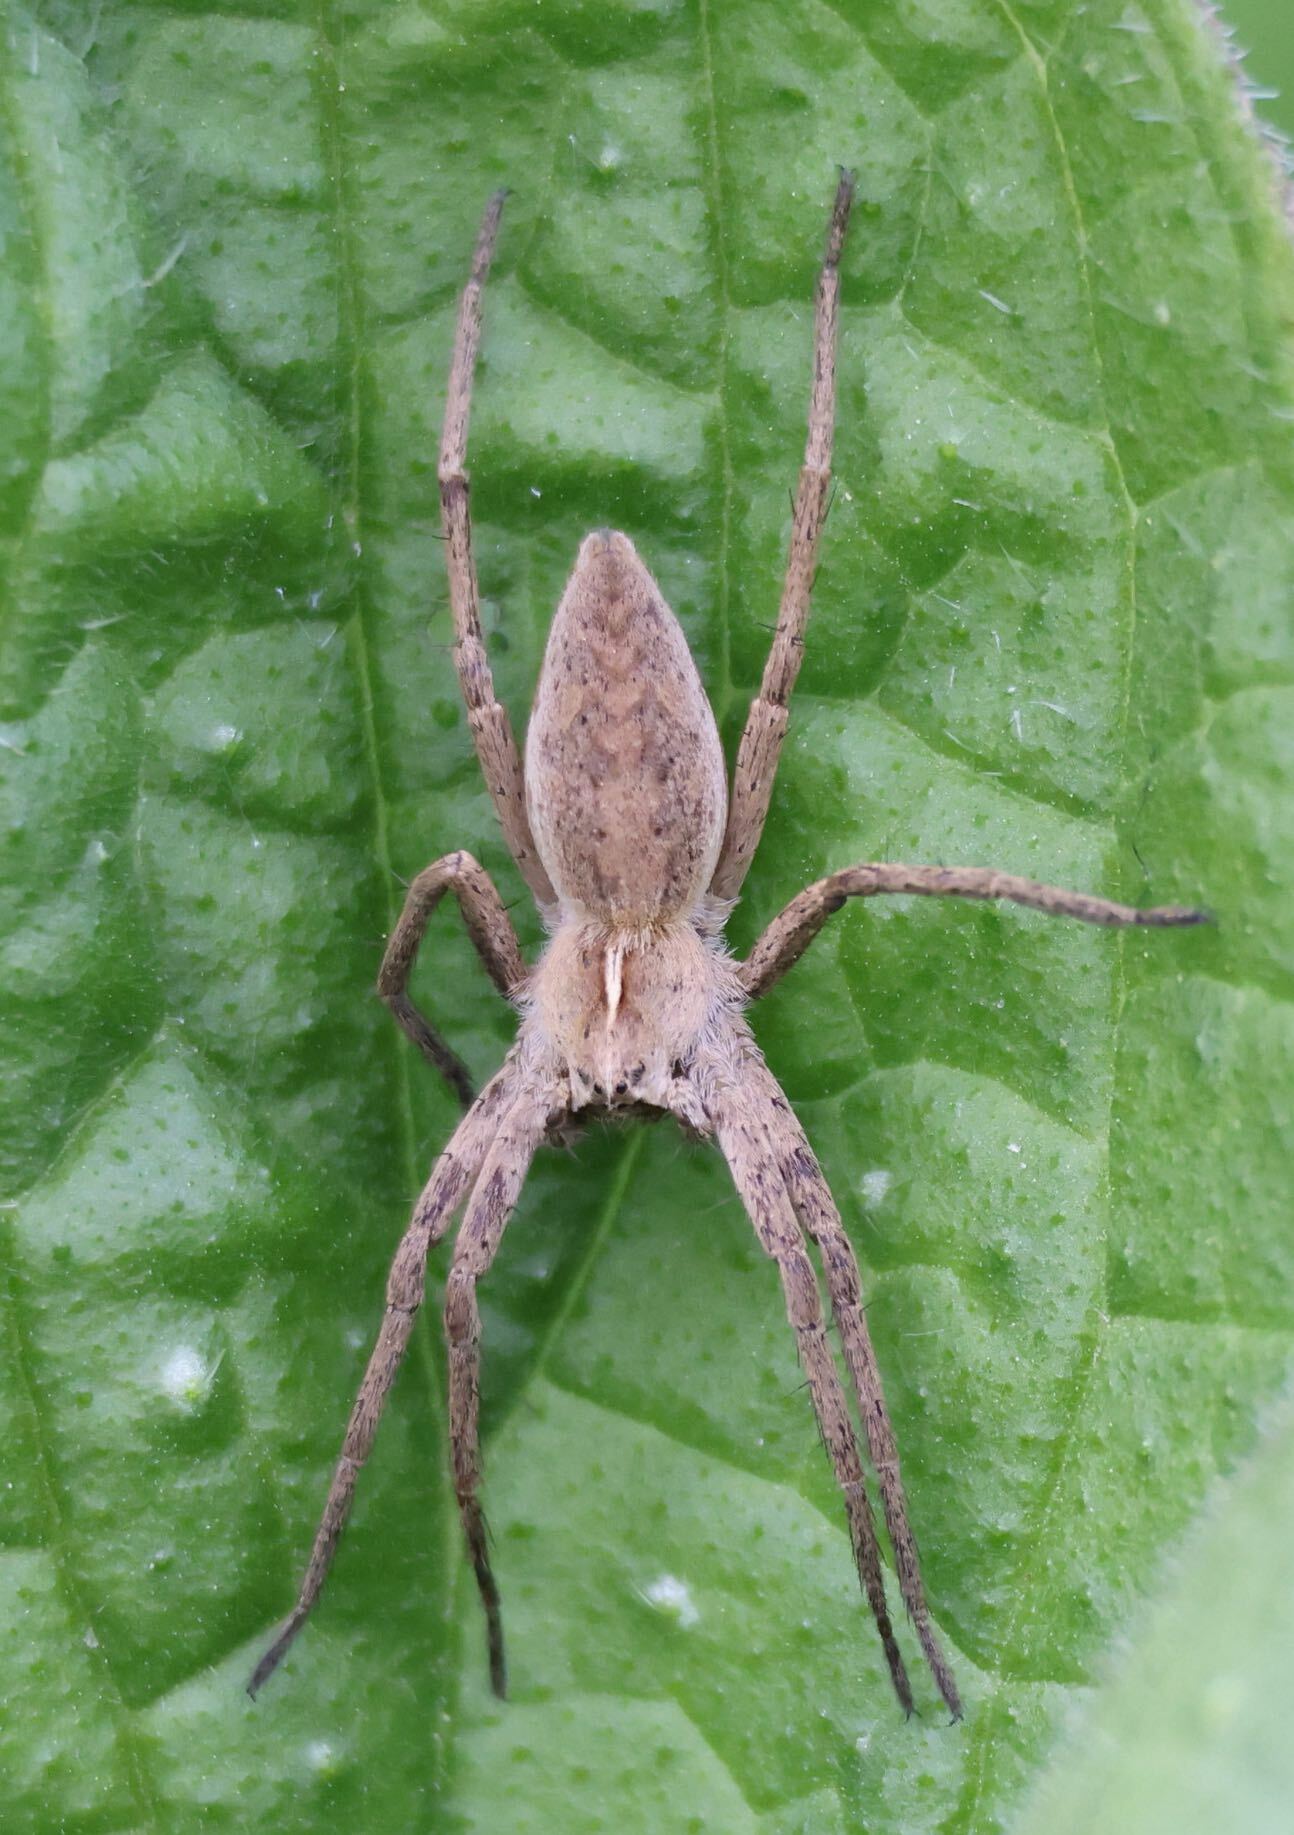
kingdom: Animalia
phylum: Arthropoda
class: Arachnida
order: Araneae
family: Pisauridae
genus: Pisaura
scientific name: Pisaura mirabilis
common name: Tent spider
